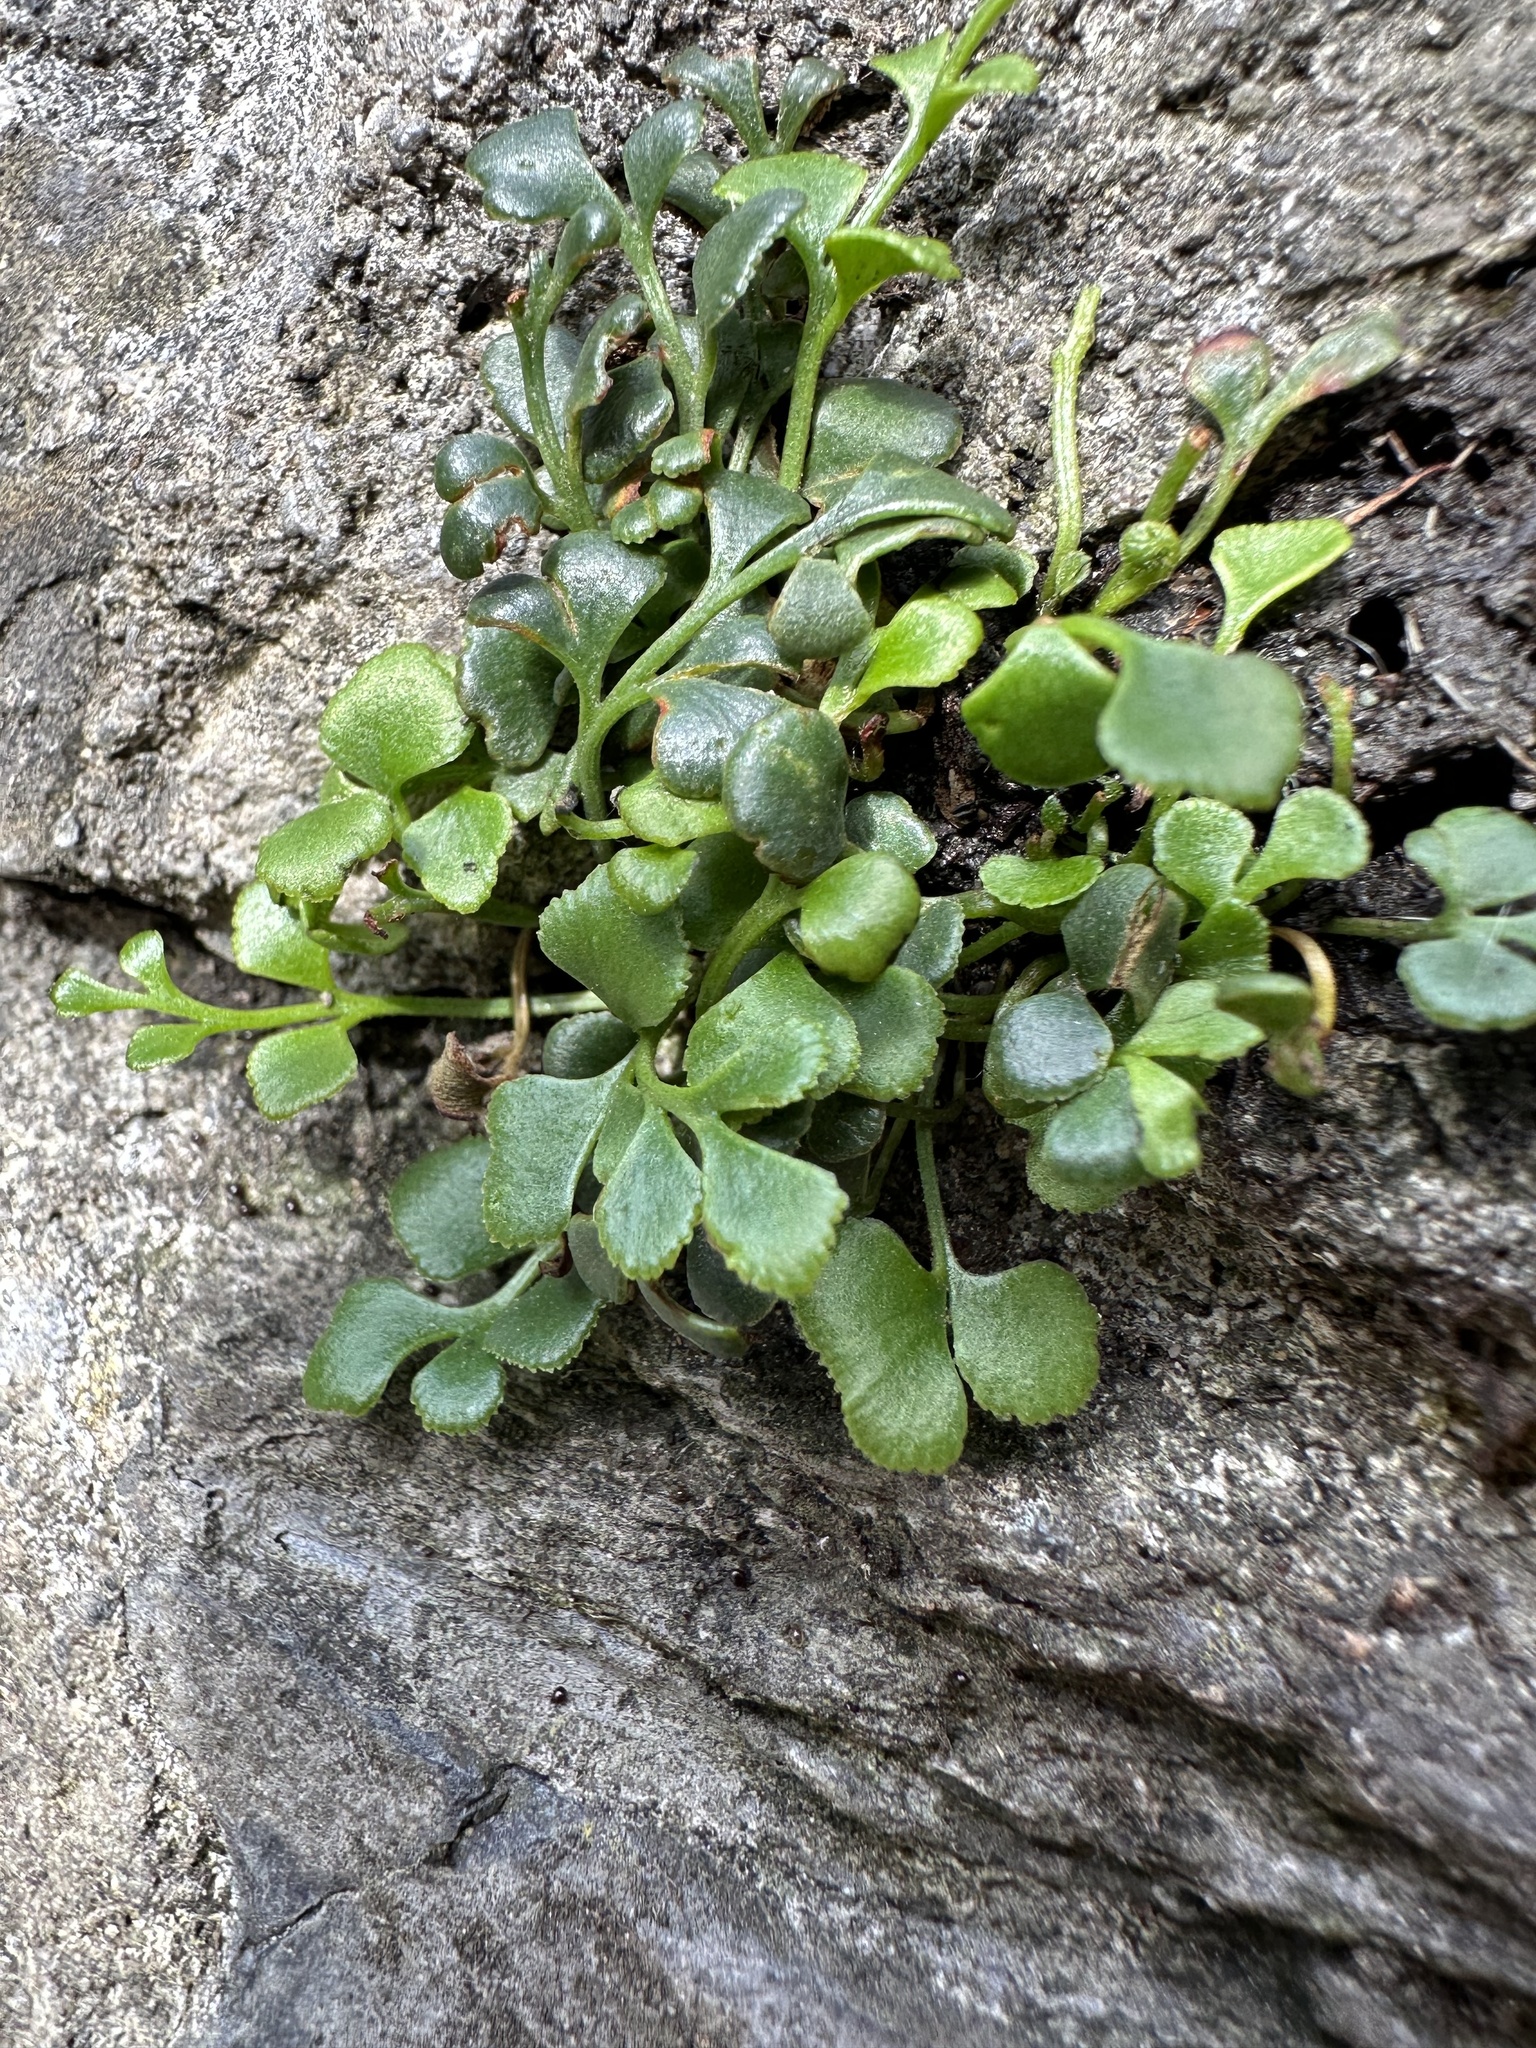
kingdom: Plantae
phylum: Tracheophyta
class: Polypodiopsida
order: Polypodiales
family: Aspleniaceae
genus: Asplenium
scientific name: Asplenium ruta-muraria
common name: Wall-rue
